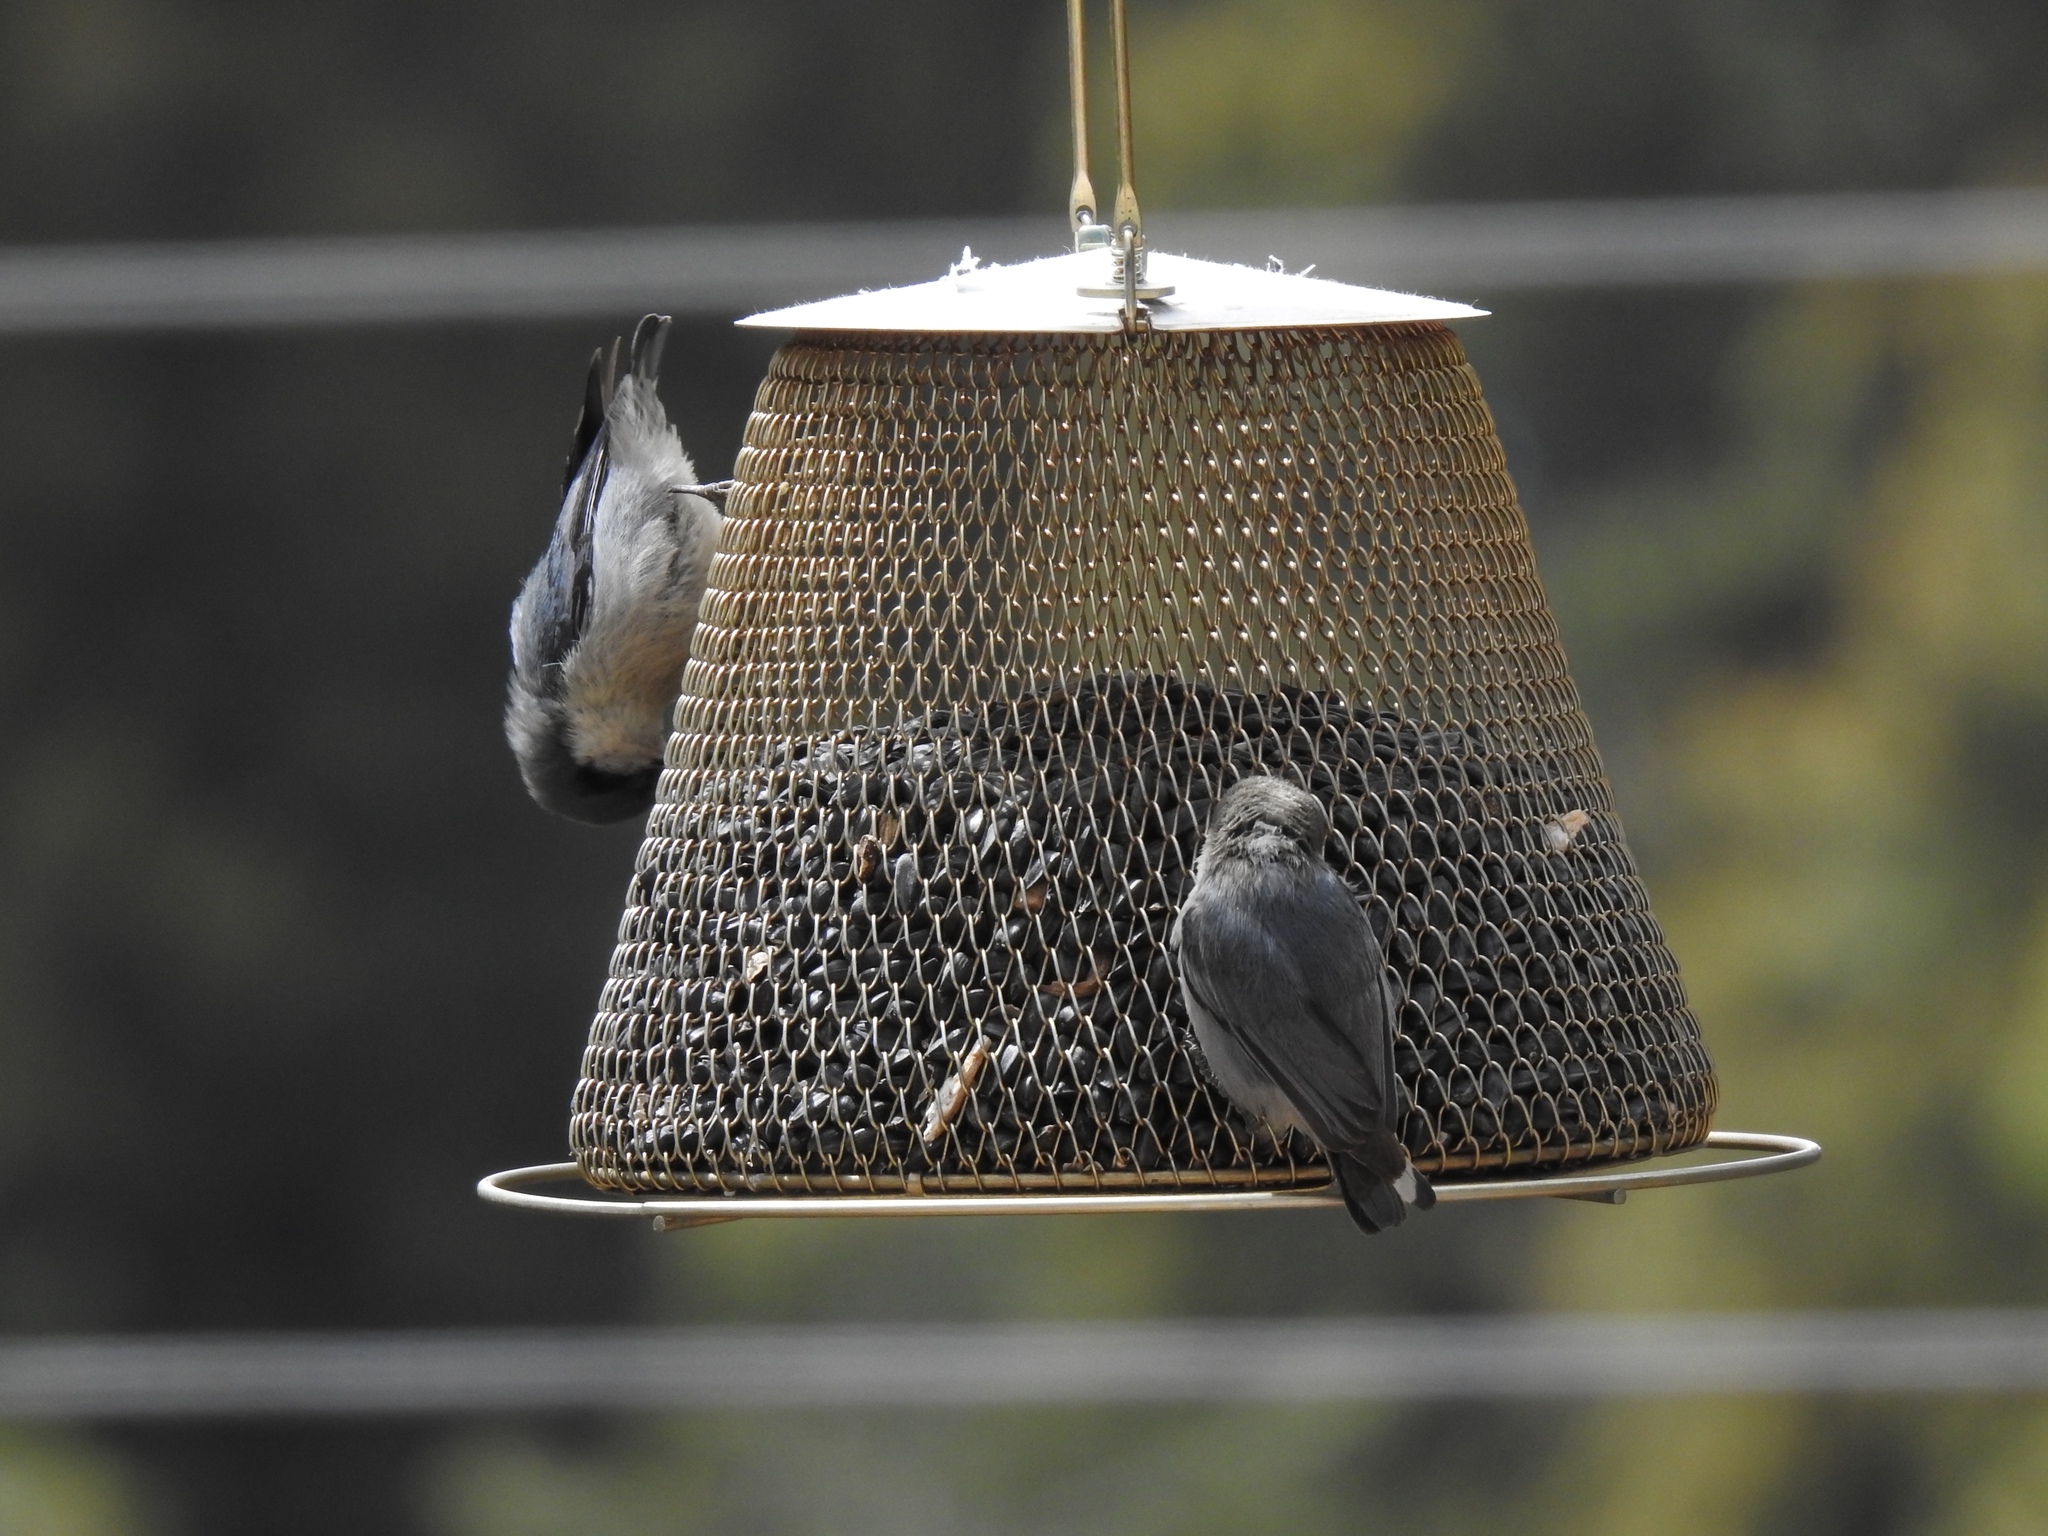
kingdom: Animalia
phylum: Chordata
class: Aves
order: Passeriformes
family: Sittidae
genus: Sitta
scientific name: Sitta pygmaea
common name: Pygmy nuthatch
